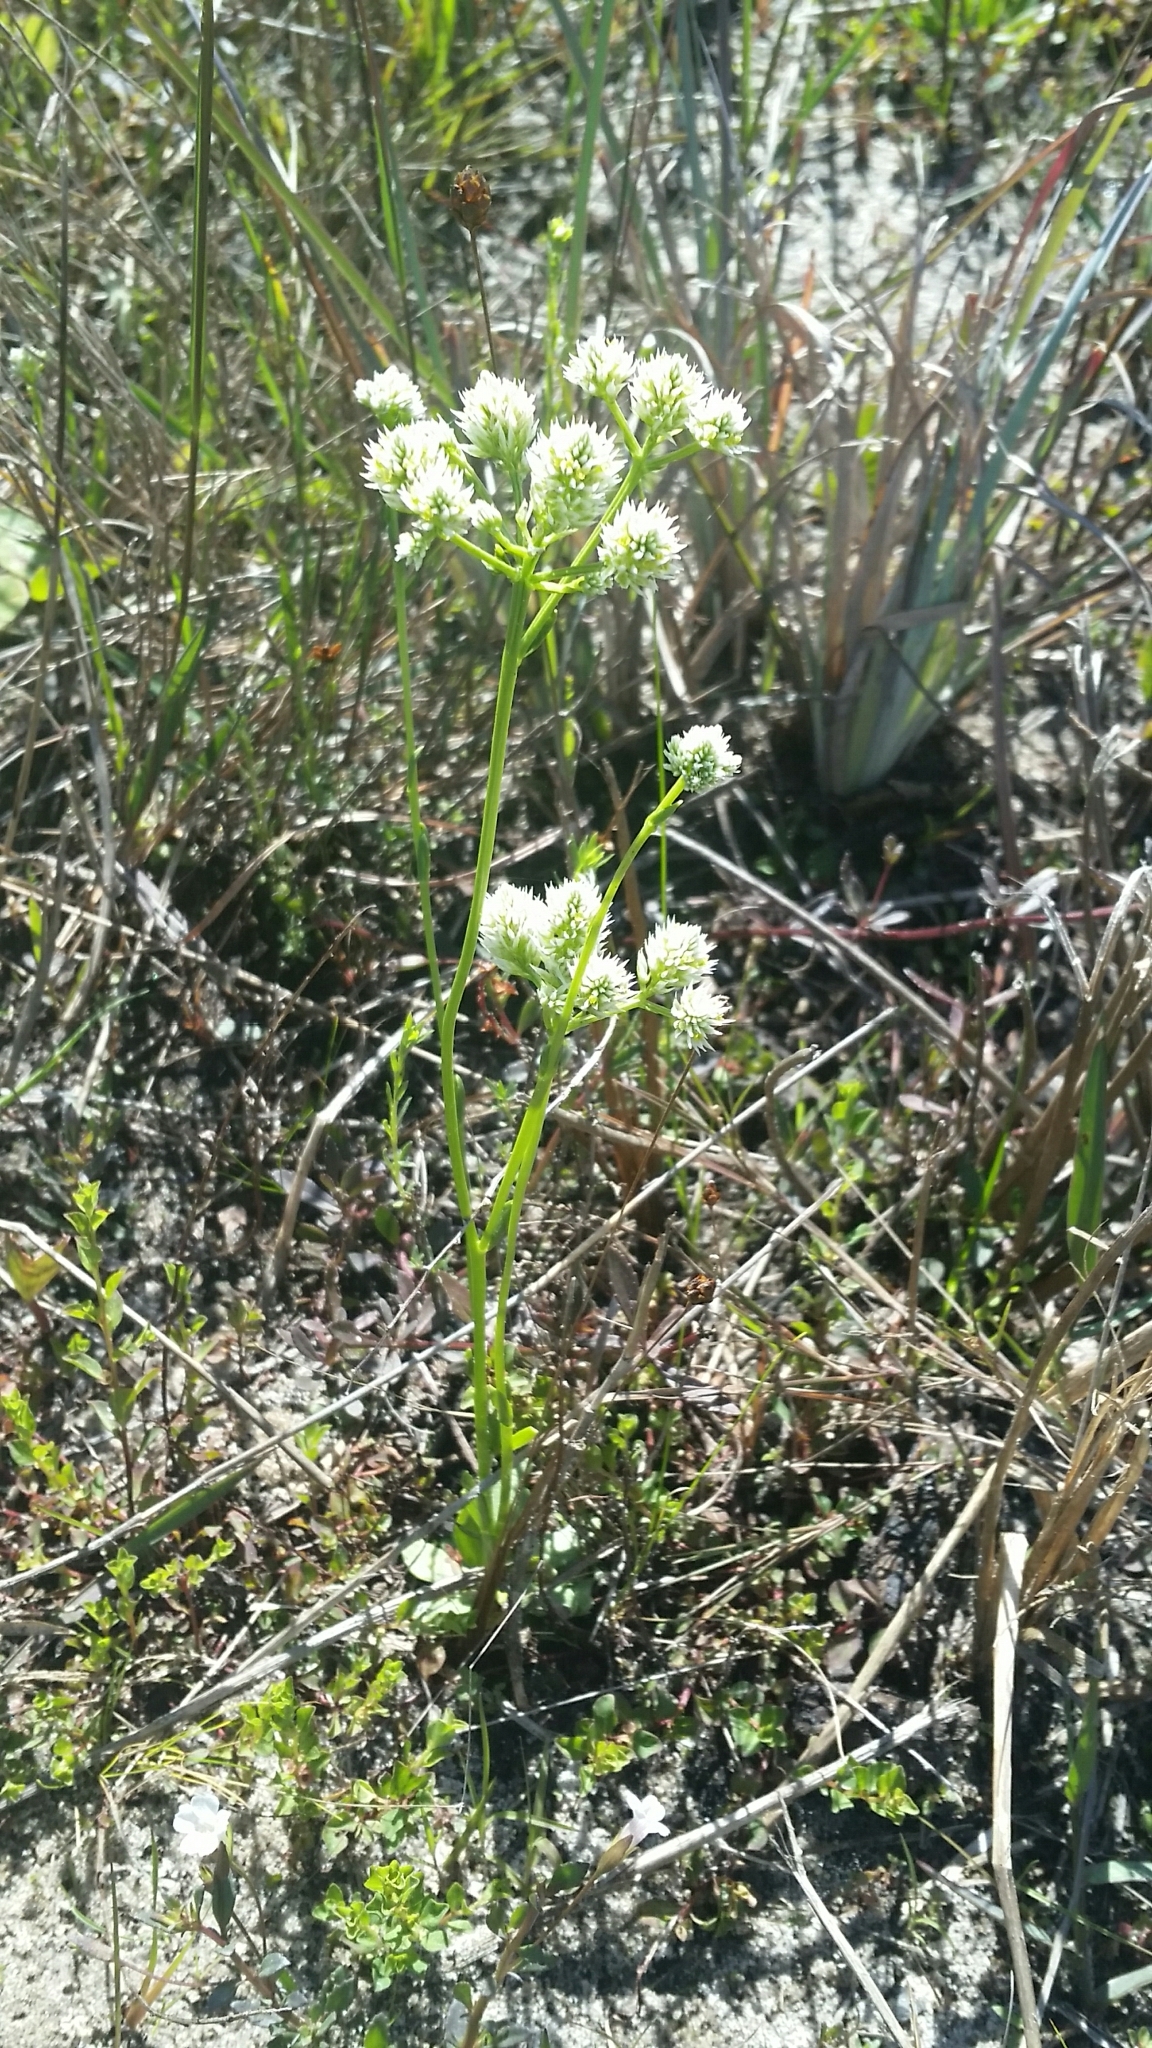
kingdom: Plantae
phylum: Tracheophyta
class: Magnoliopsida
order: Fabales
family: Polygalaceae
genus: Polygala
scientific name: Polygala baldwinii
